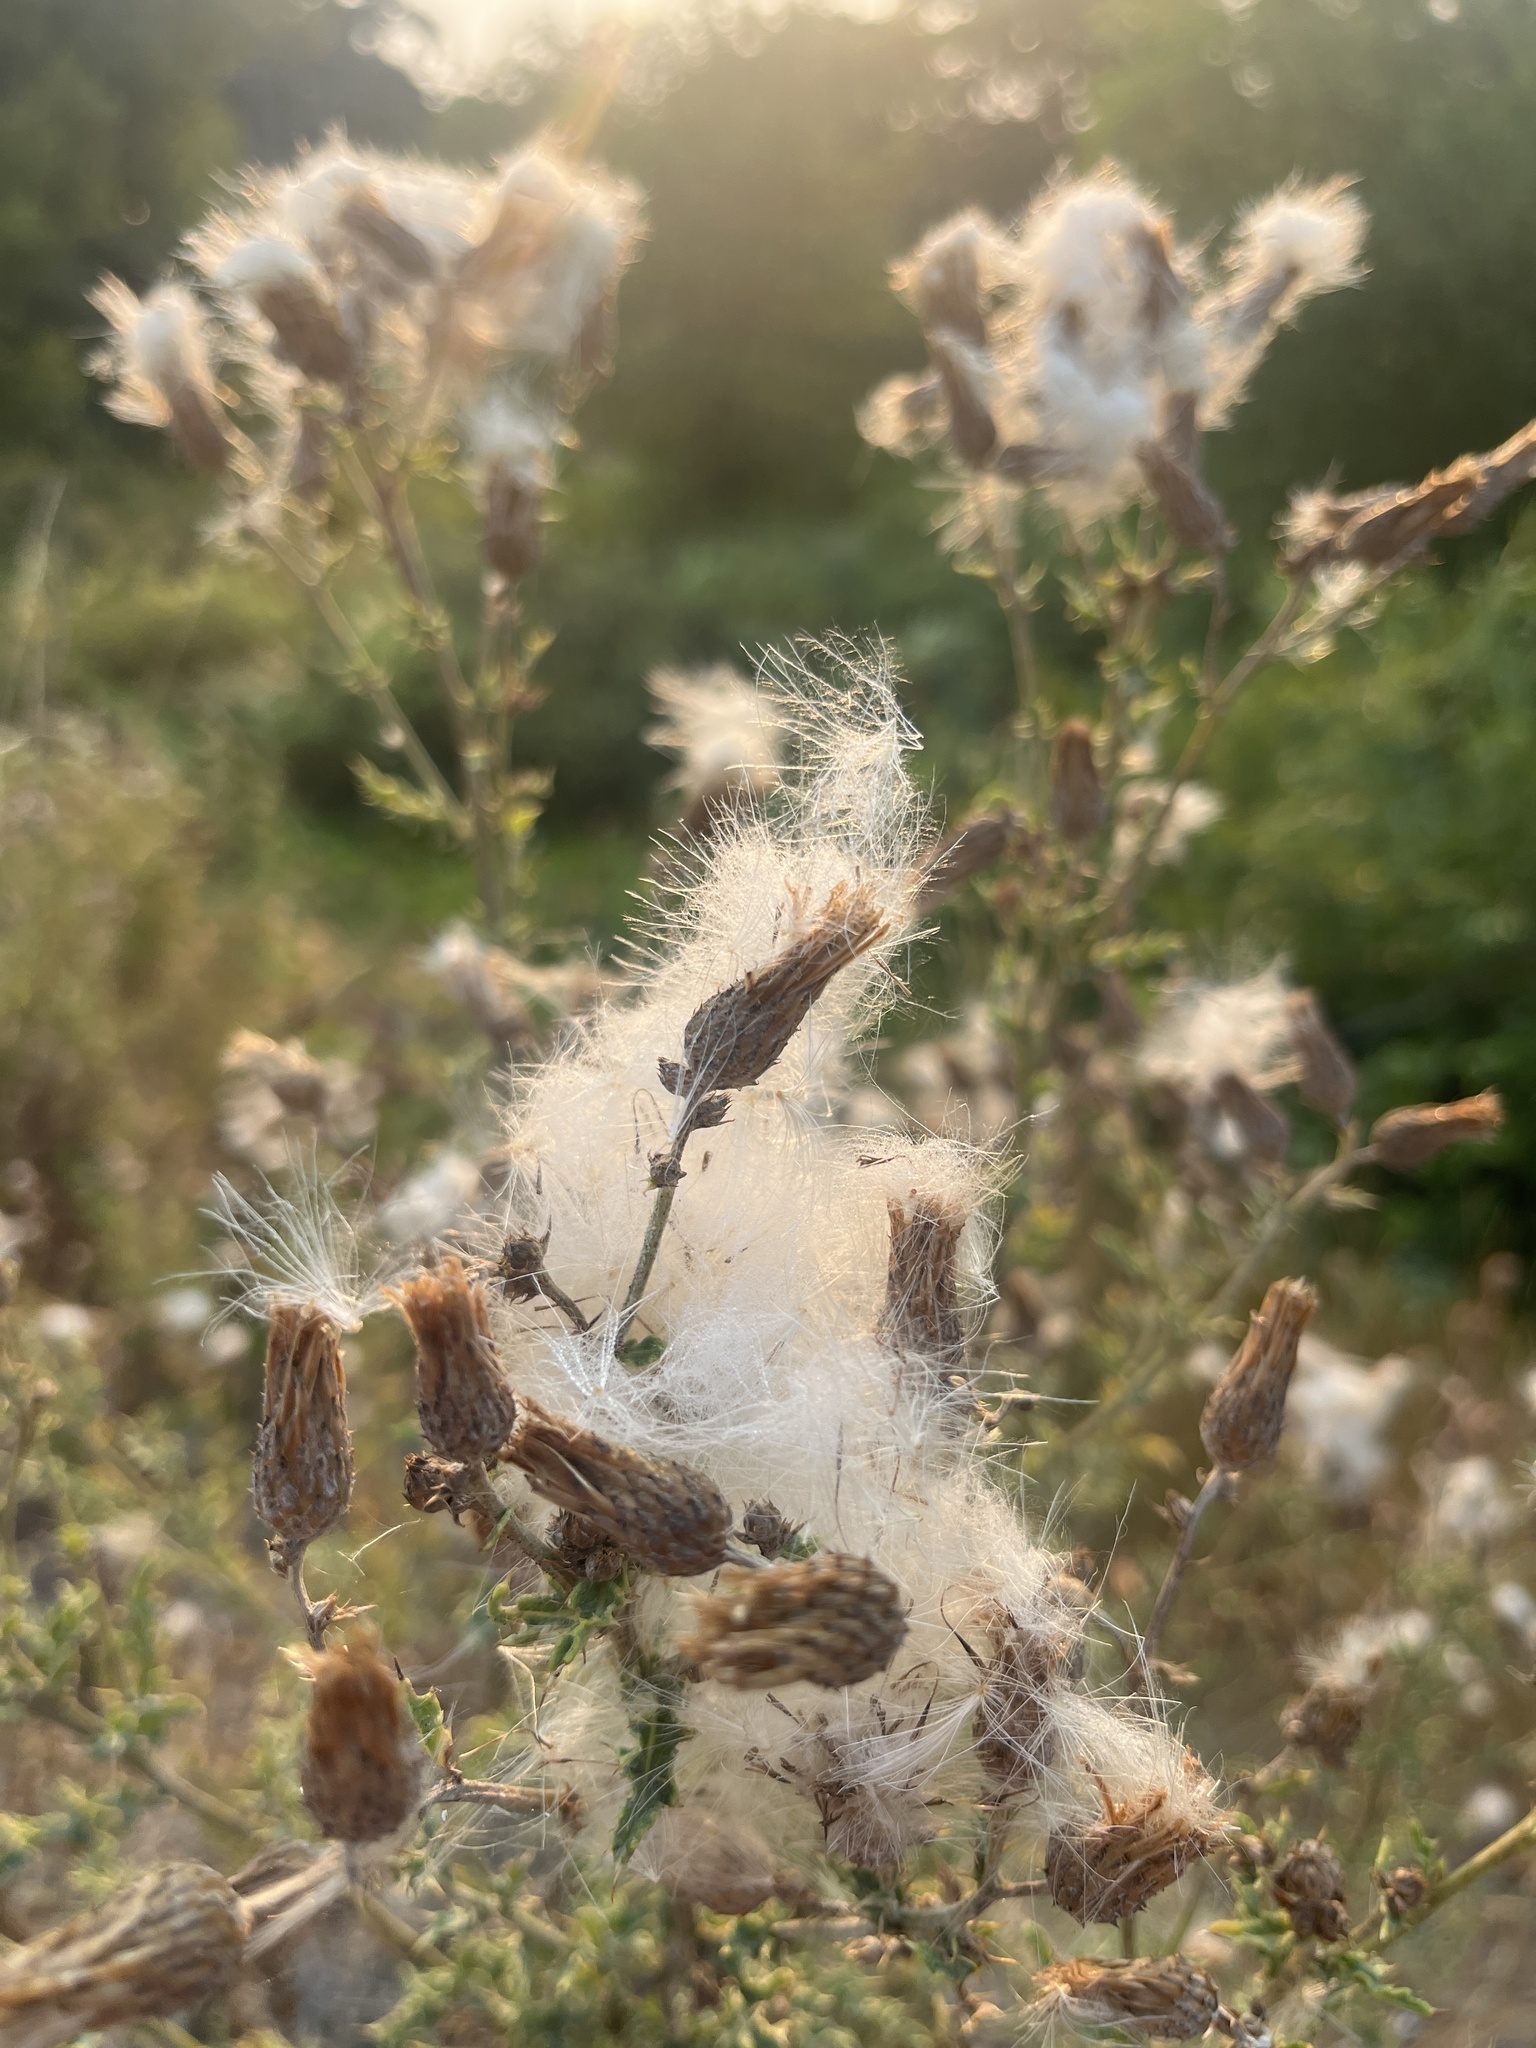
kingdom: Plantae
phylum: Tracheophyta
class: Magnoliopsida
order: Asterales
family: Asteraceae
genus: Cirsium
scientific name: Cirsium arvense
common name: Creeping thistle
